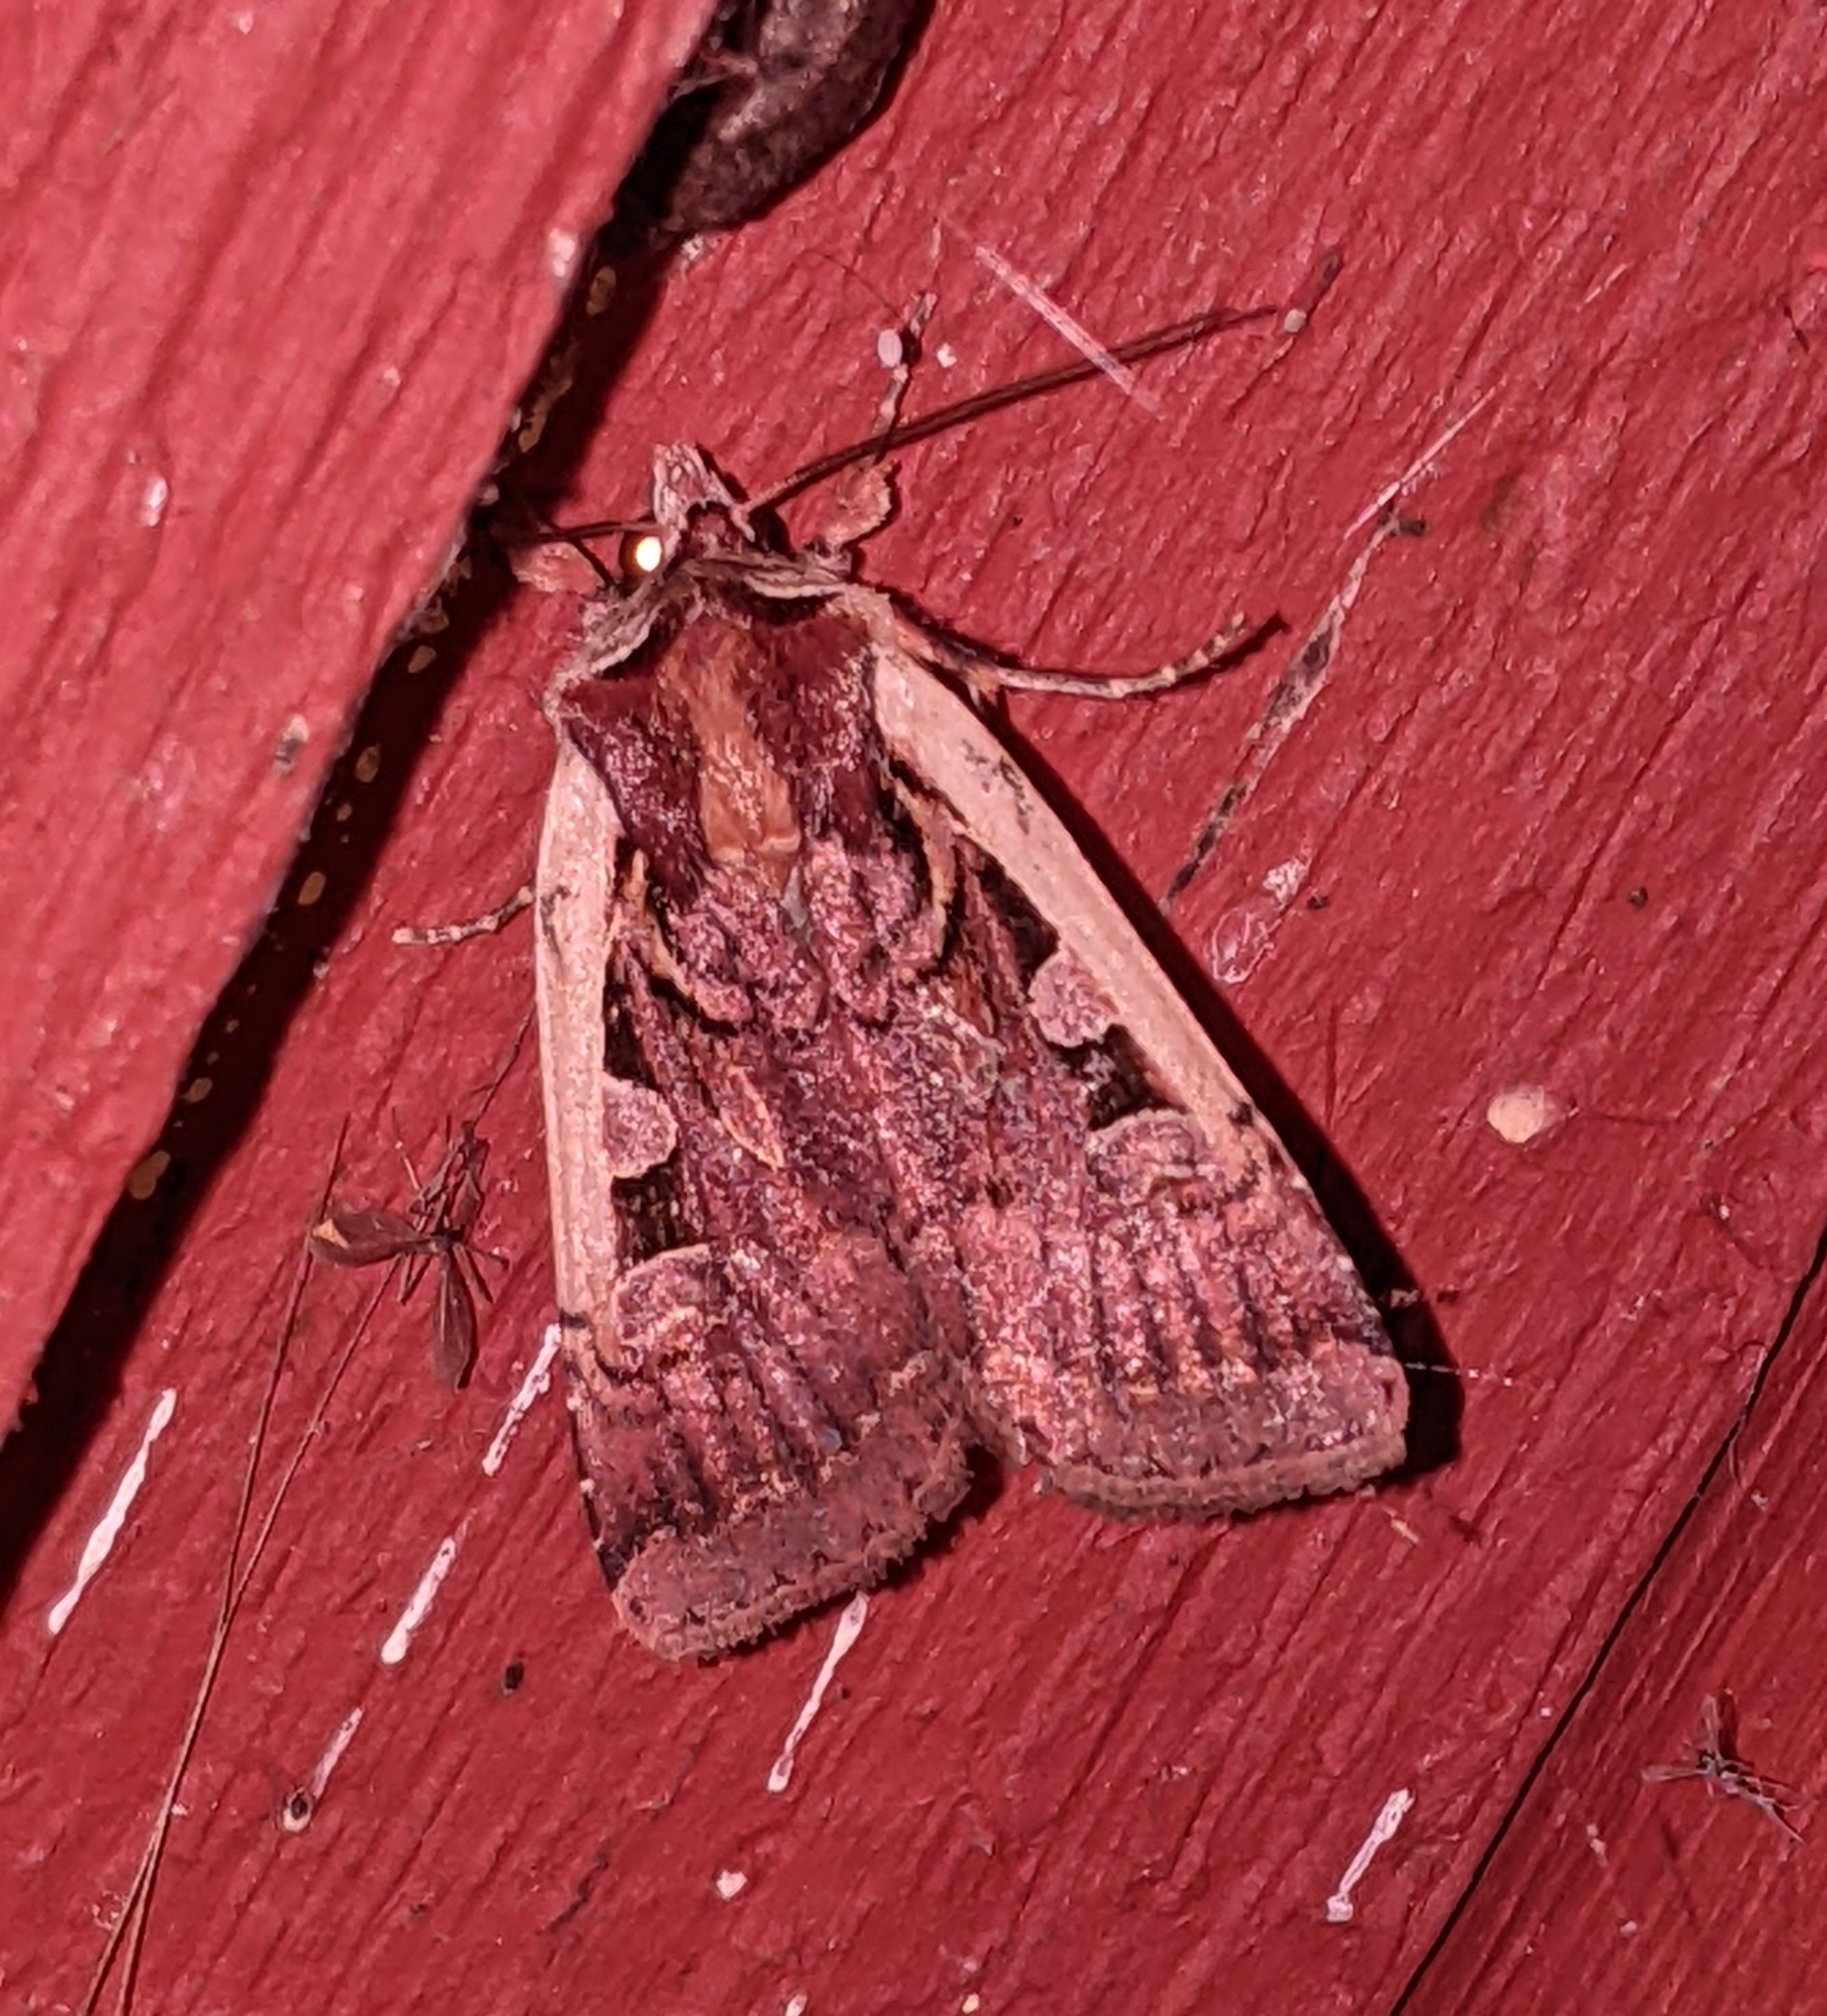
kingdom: Animalia
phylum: Arthropoda
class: Insecta
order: Lepidoptera
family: Noctuidae
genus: Parabagrotis
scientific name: Parabagrotis sulinaris
